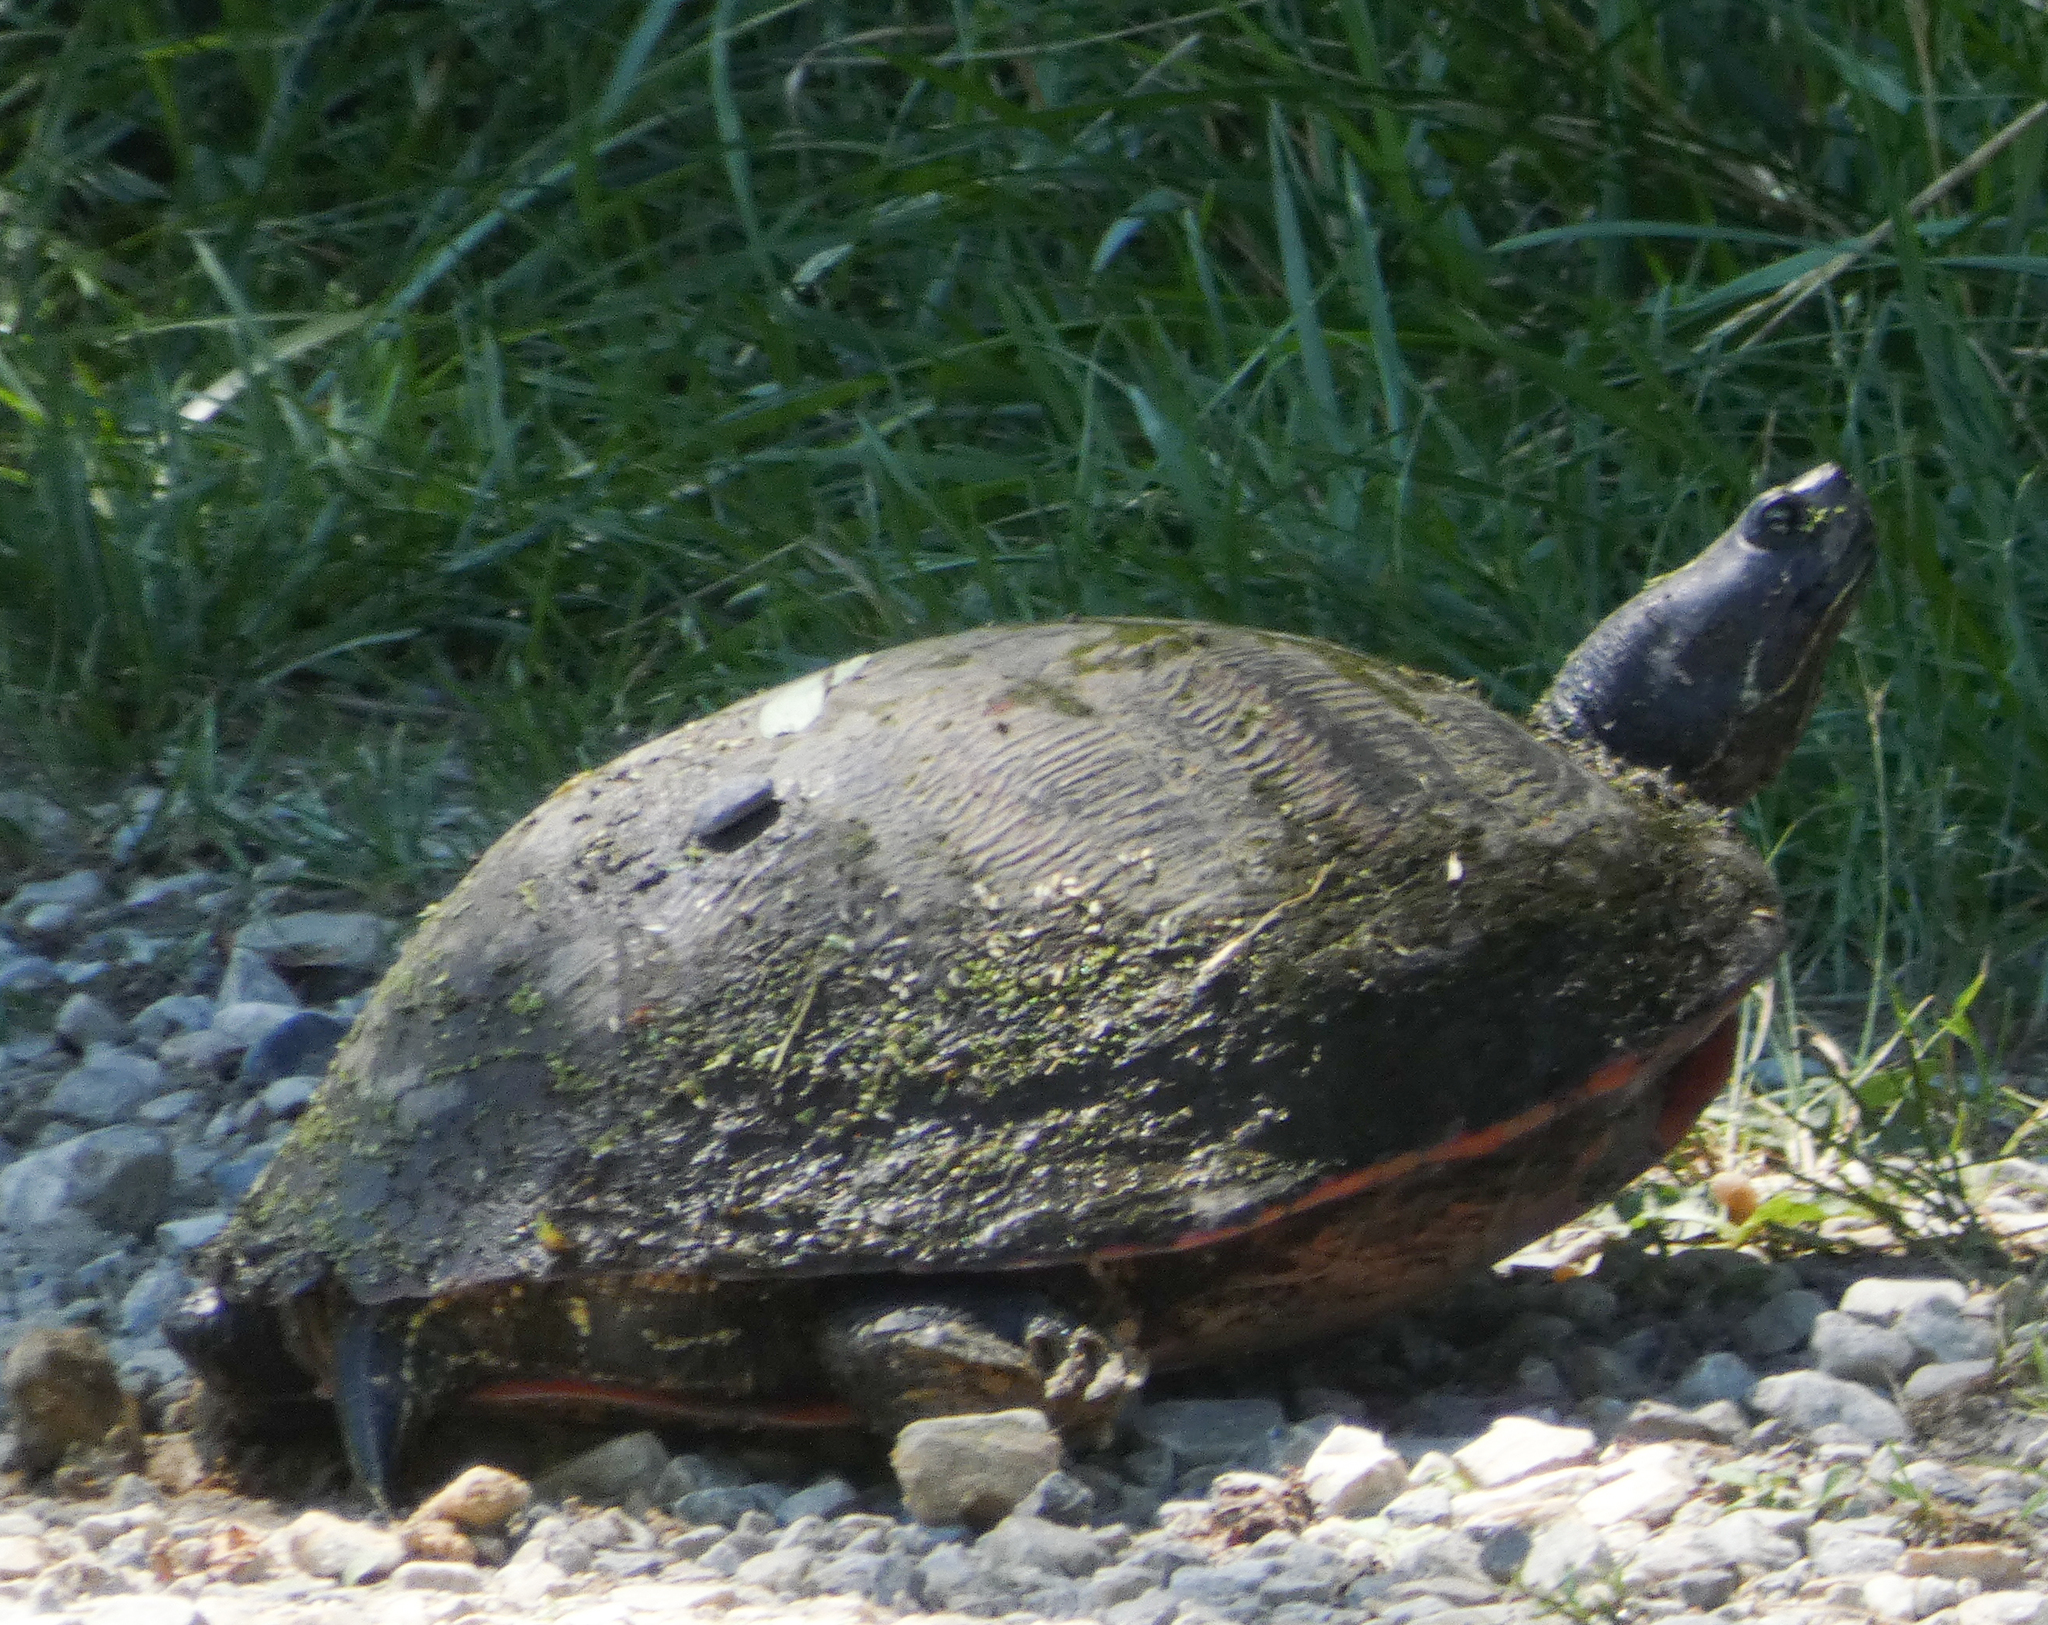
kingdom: Animalia
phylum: Chordata
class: Testudines
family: Emydidae
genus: Pseudemys
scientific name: Pseudemys rubriventris
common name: American red-bellied turtle
